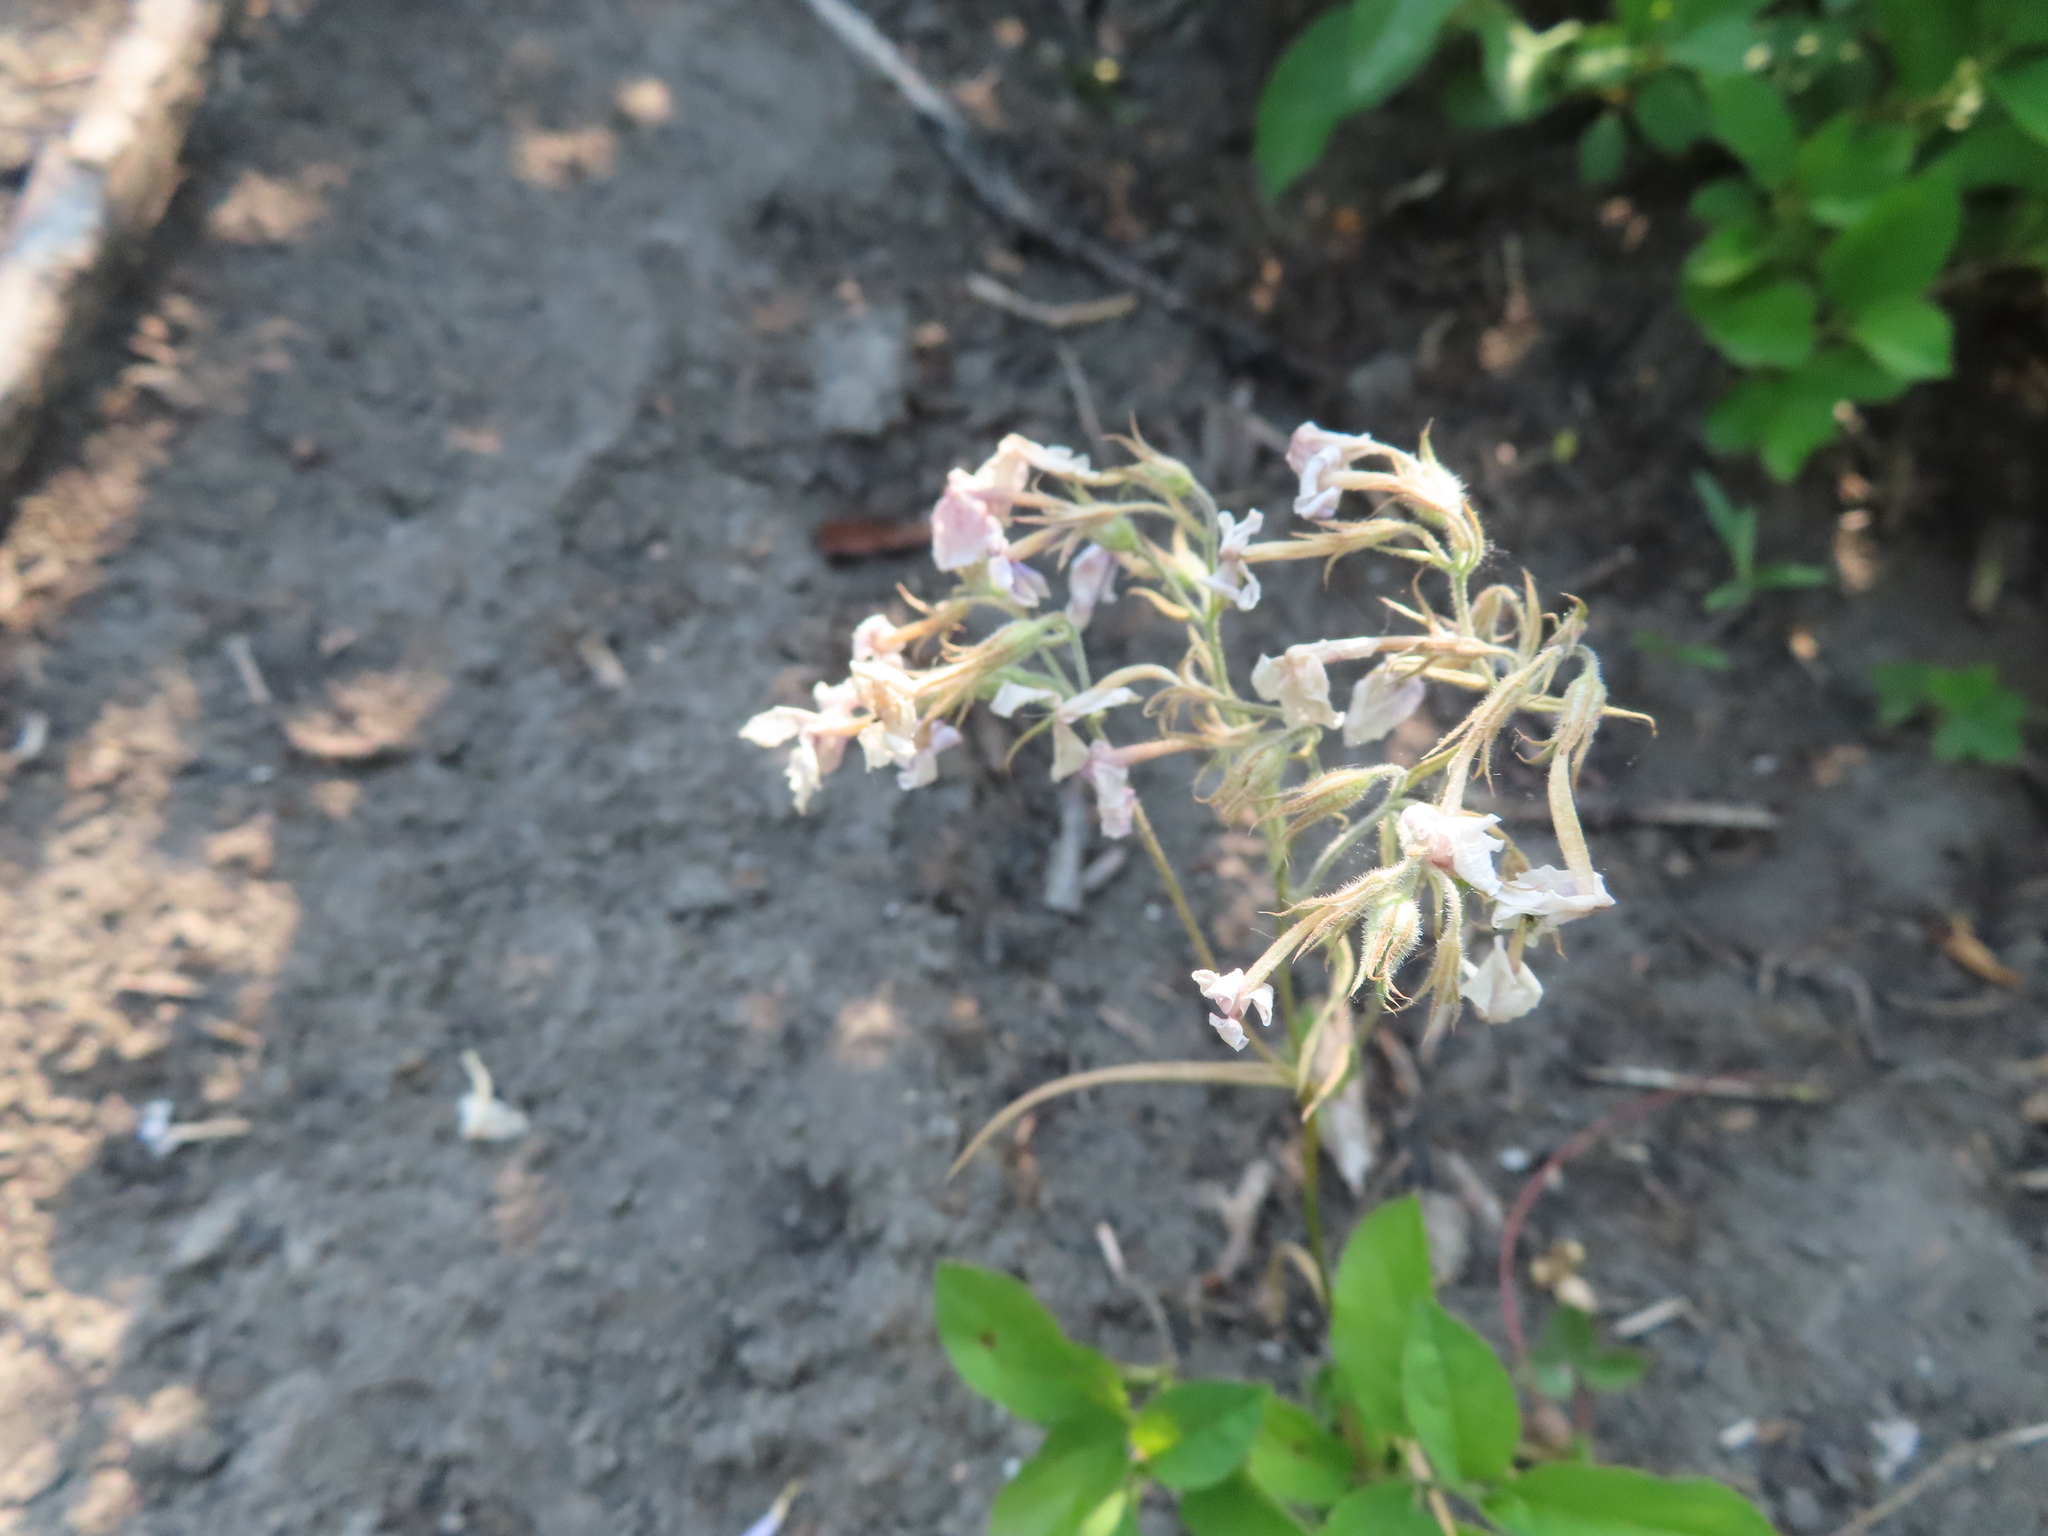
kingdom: Plantae
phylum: Tracheophyta
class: Magnoliopsida
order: Ericales
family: Polemoniaceae
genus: Phlox
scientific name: Phlox pilosa
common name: Prairie phlox
